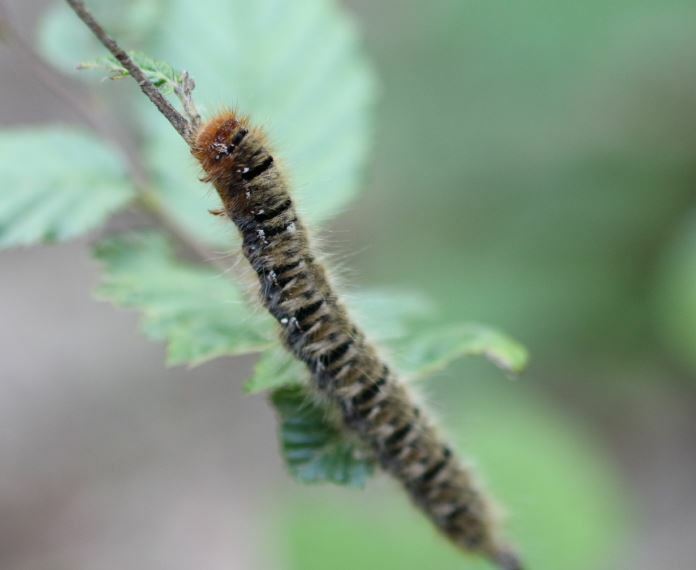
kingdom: Animalia
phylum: Arthropoda
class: Insecta
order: Lepidoptera
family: Lasiocampidae
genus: Lasiocampa
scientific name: Lasiocampa quercus
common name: Oak eggar
